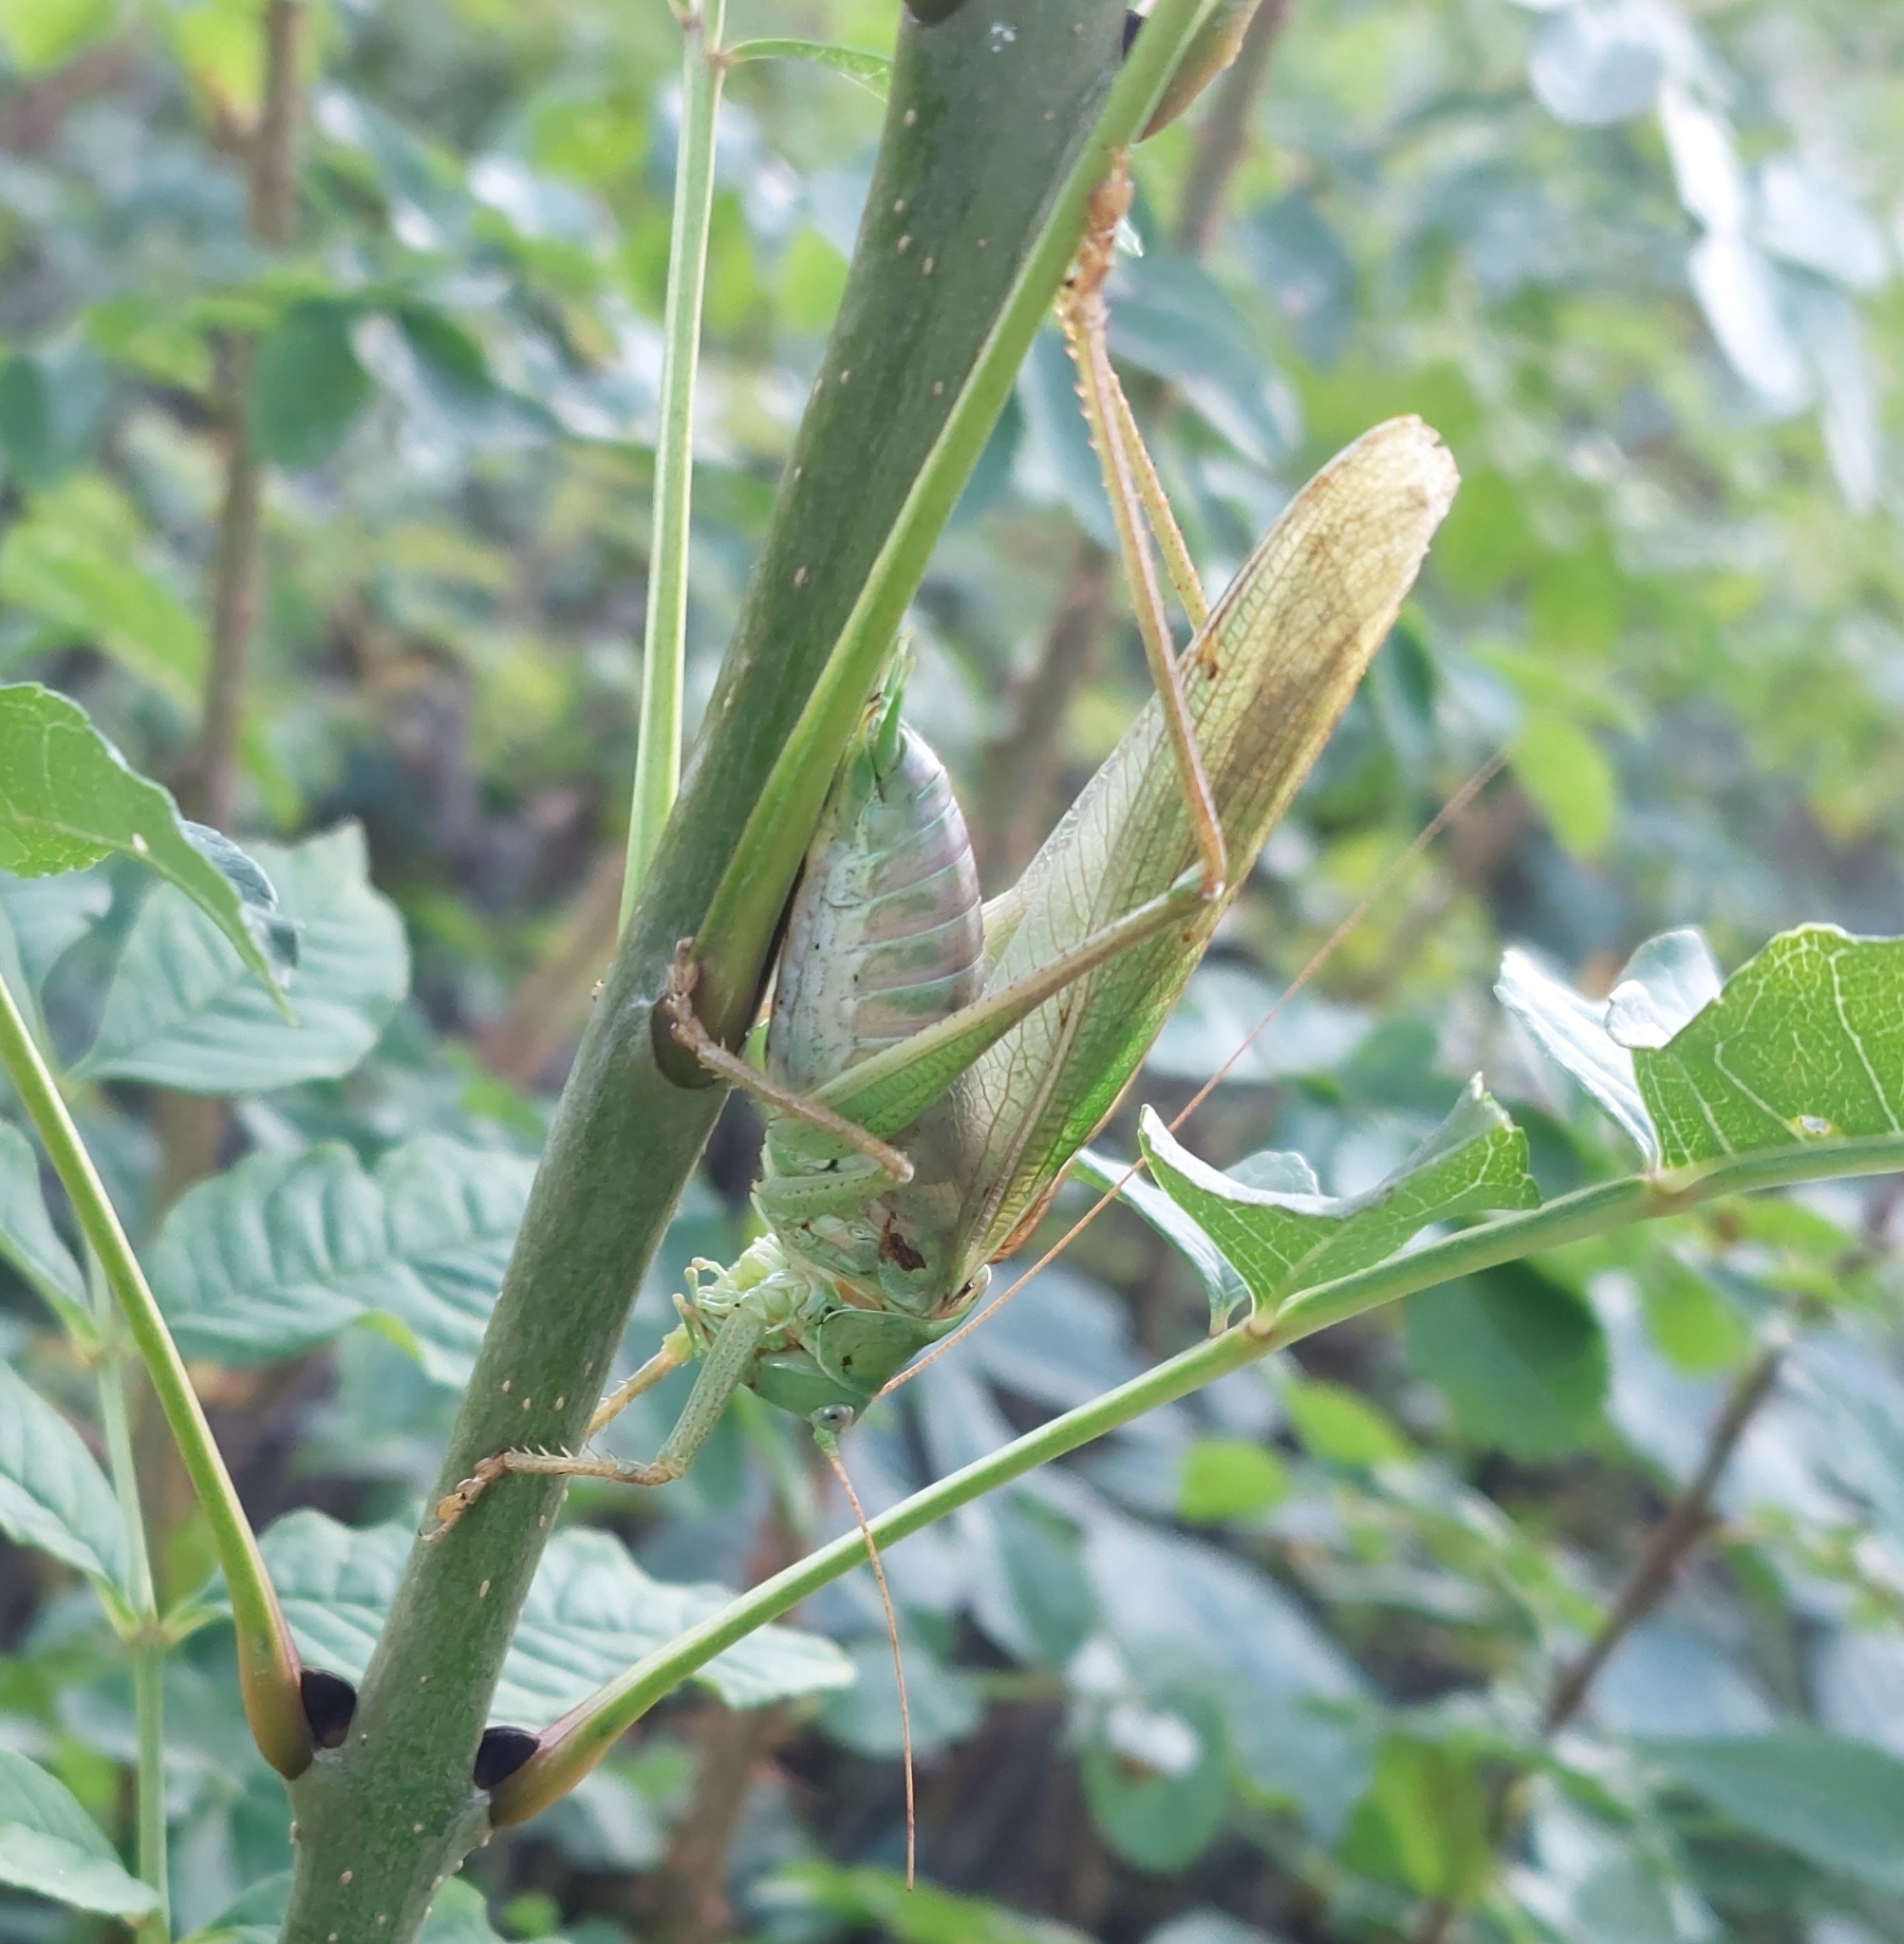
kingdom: Animalia
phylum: Arthropoda
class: Insecta
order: Orthoptera
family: Tettigoniidae
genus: Tettigonia
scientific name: Tettigonia viridissima
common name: Great green bush-cricket
